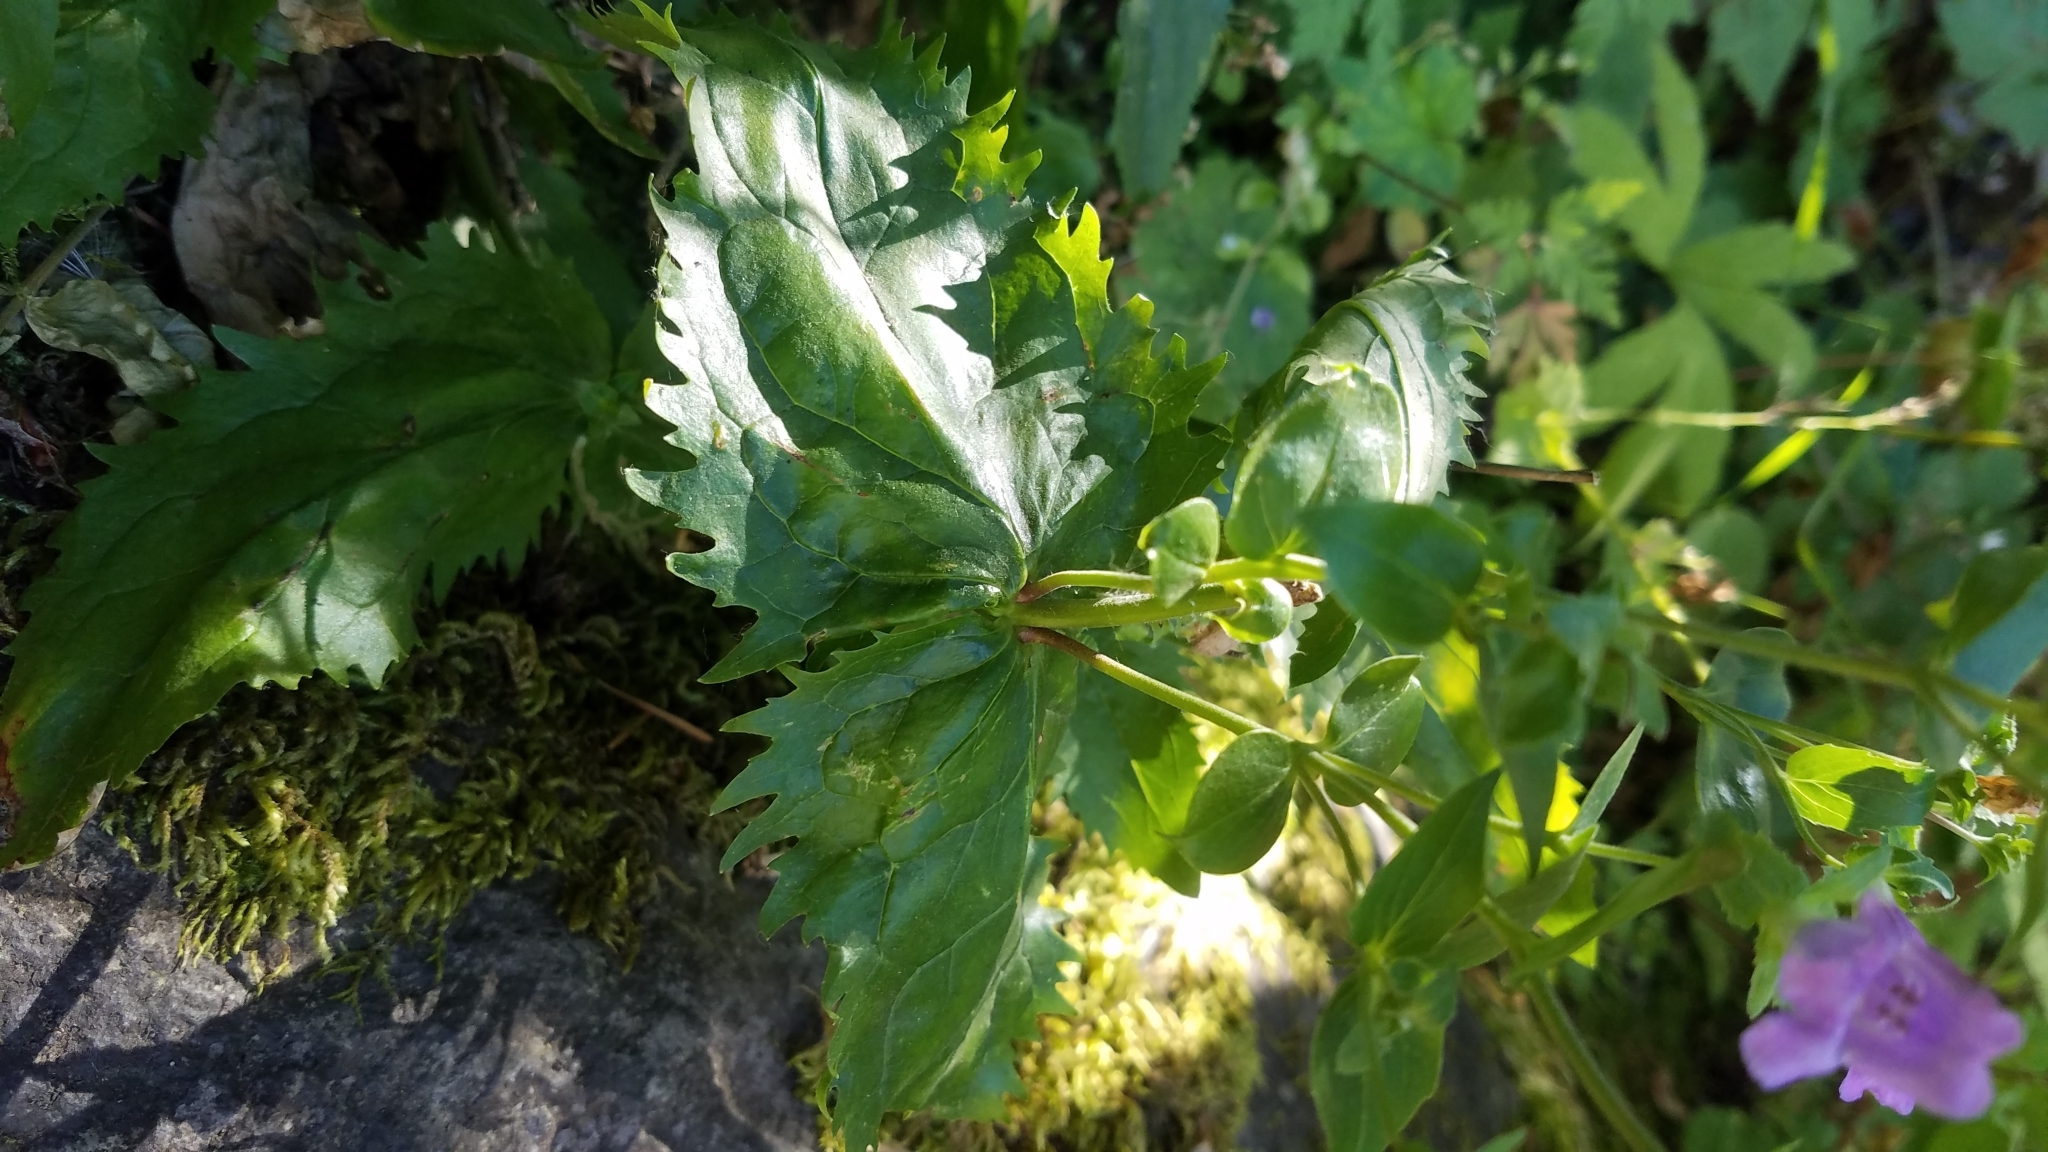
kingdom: Plantae
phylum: Tracheophyta
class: Magnoliopsida
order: Lamiales
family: Plantaginaceae
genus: Nothochelone
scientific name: Nothochelone nemorosa
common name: Woodland beardtongue
